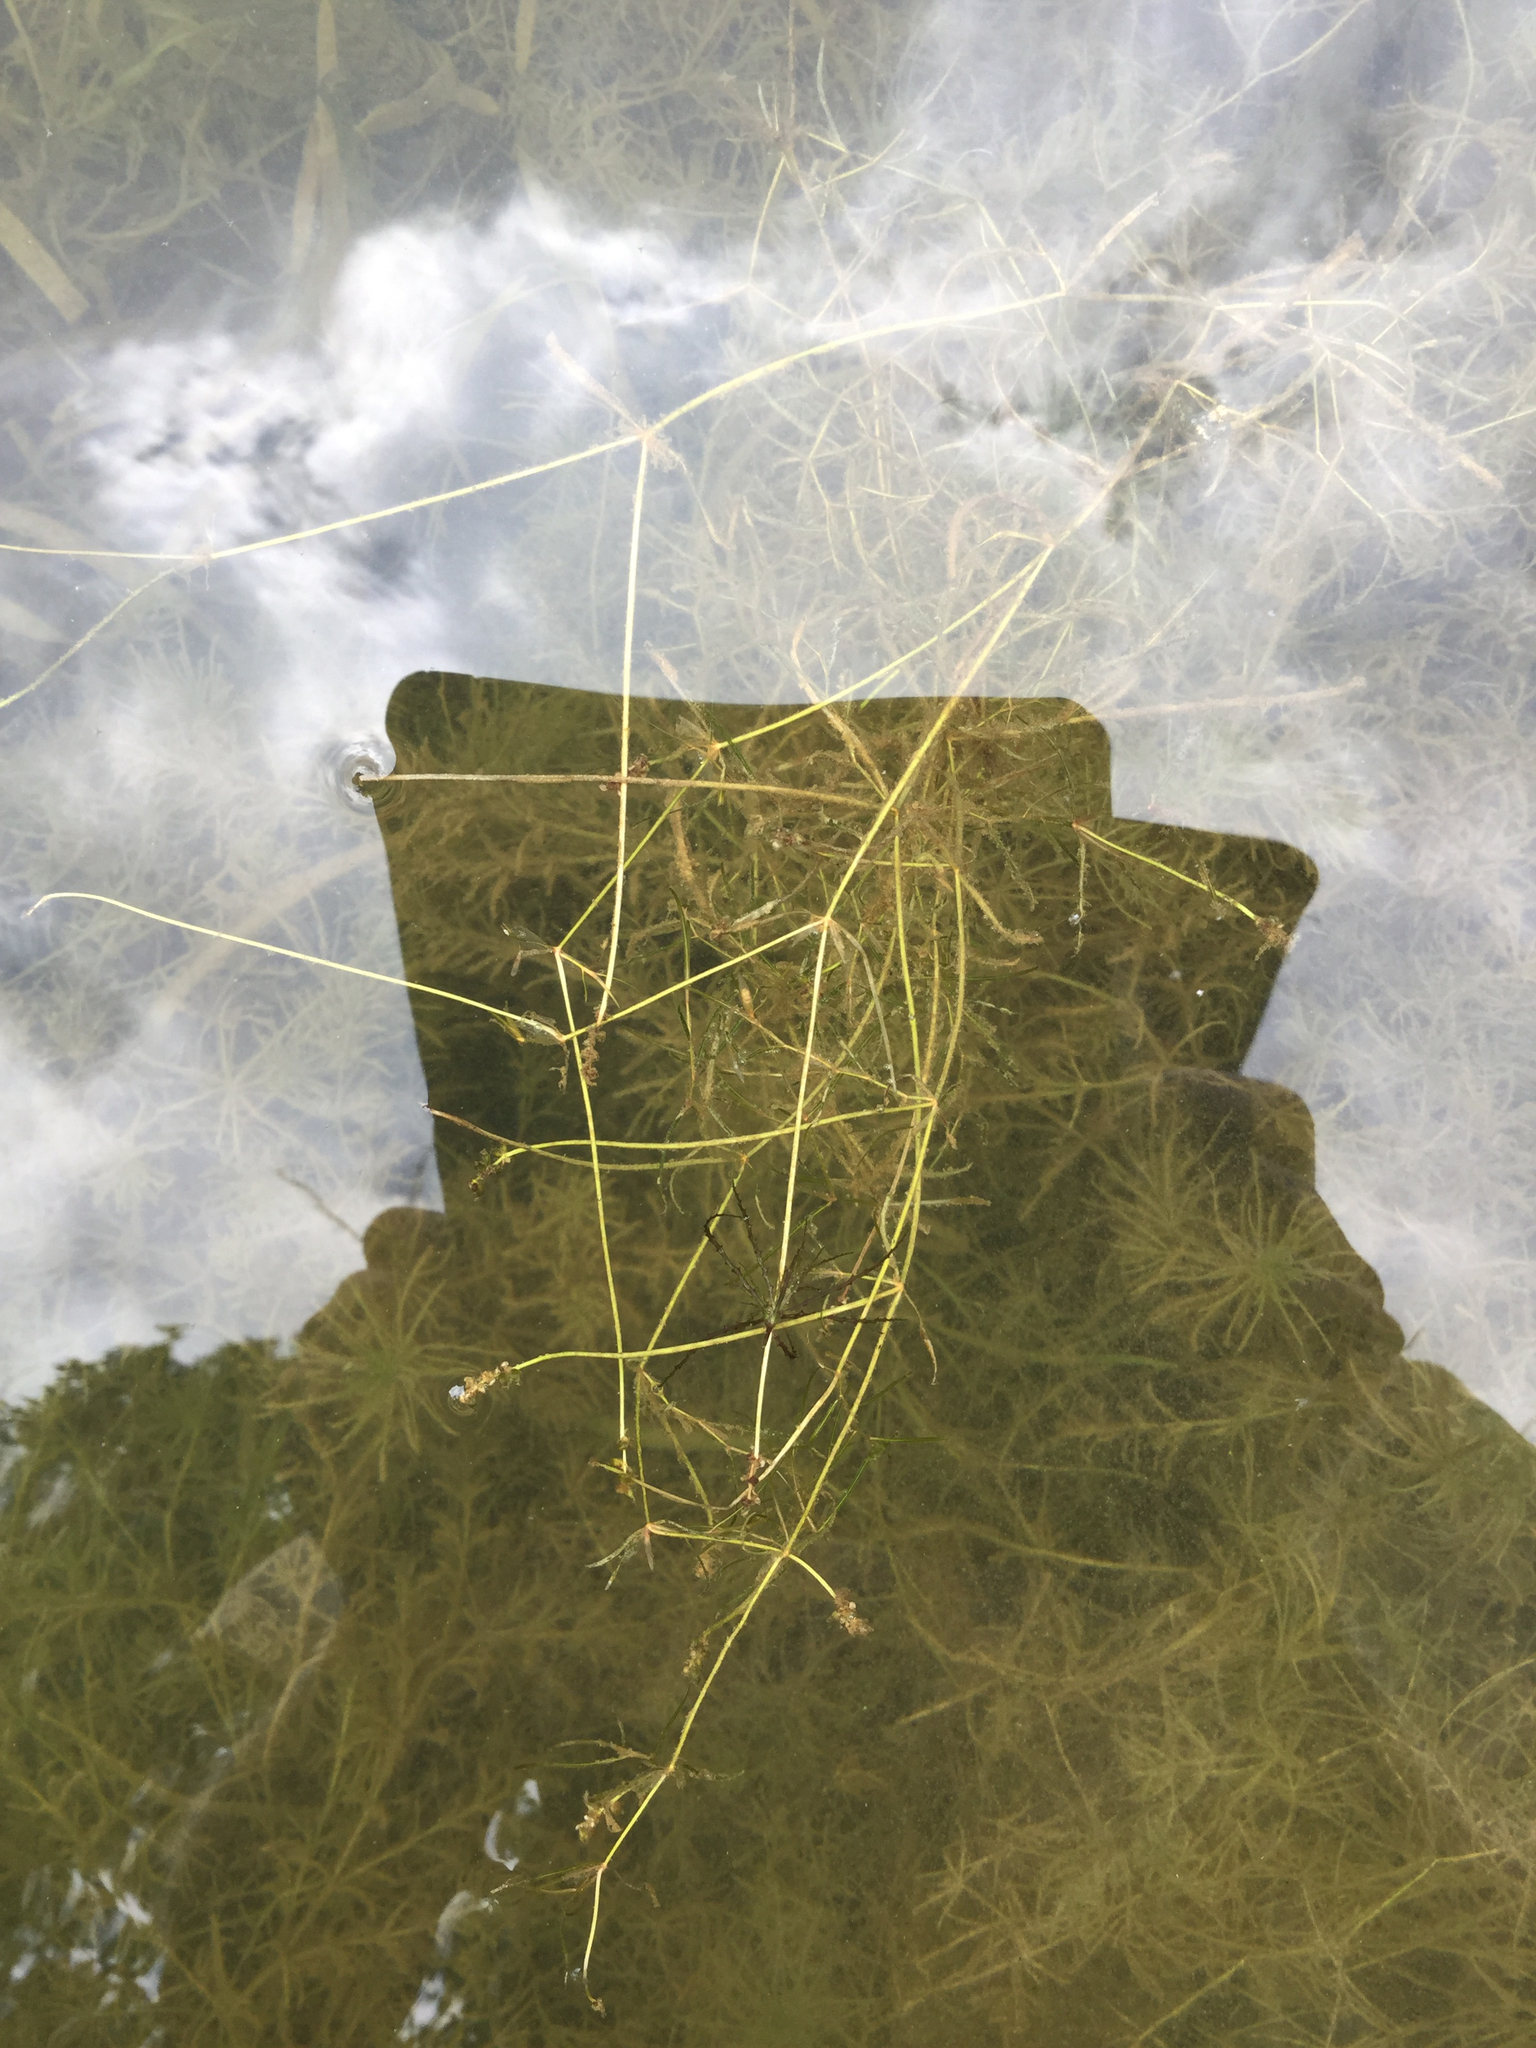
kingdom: Plantae
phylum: Tracheophyta
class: Liliopsida
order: Alismatales
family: Potamogetonaceae
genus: Potamogeton
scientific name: Potamogeton pusillus
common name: Lesser pondweed
